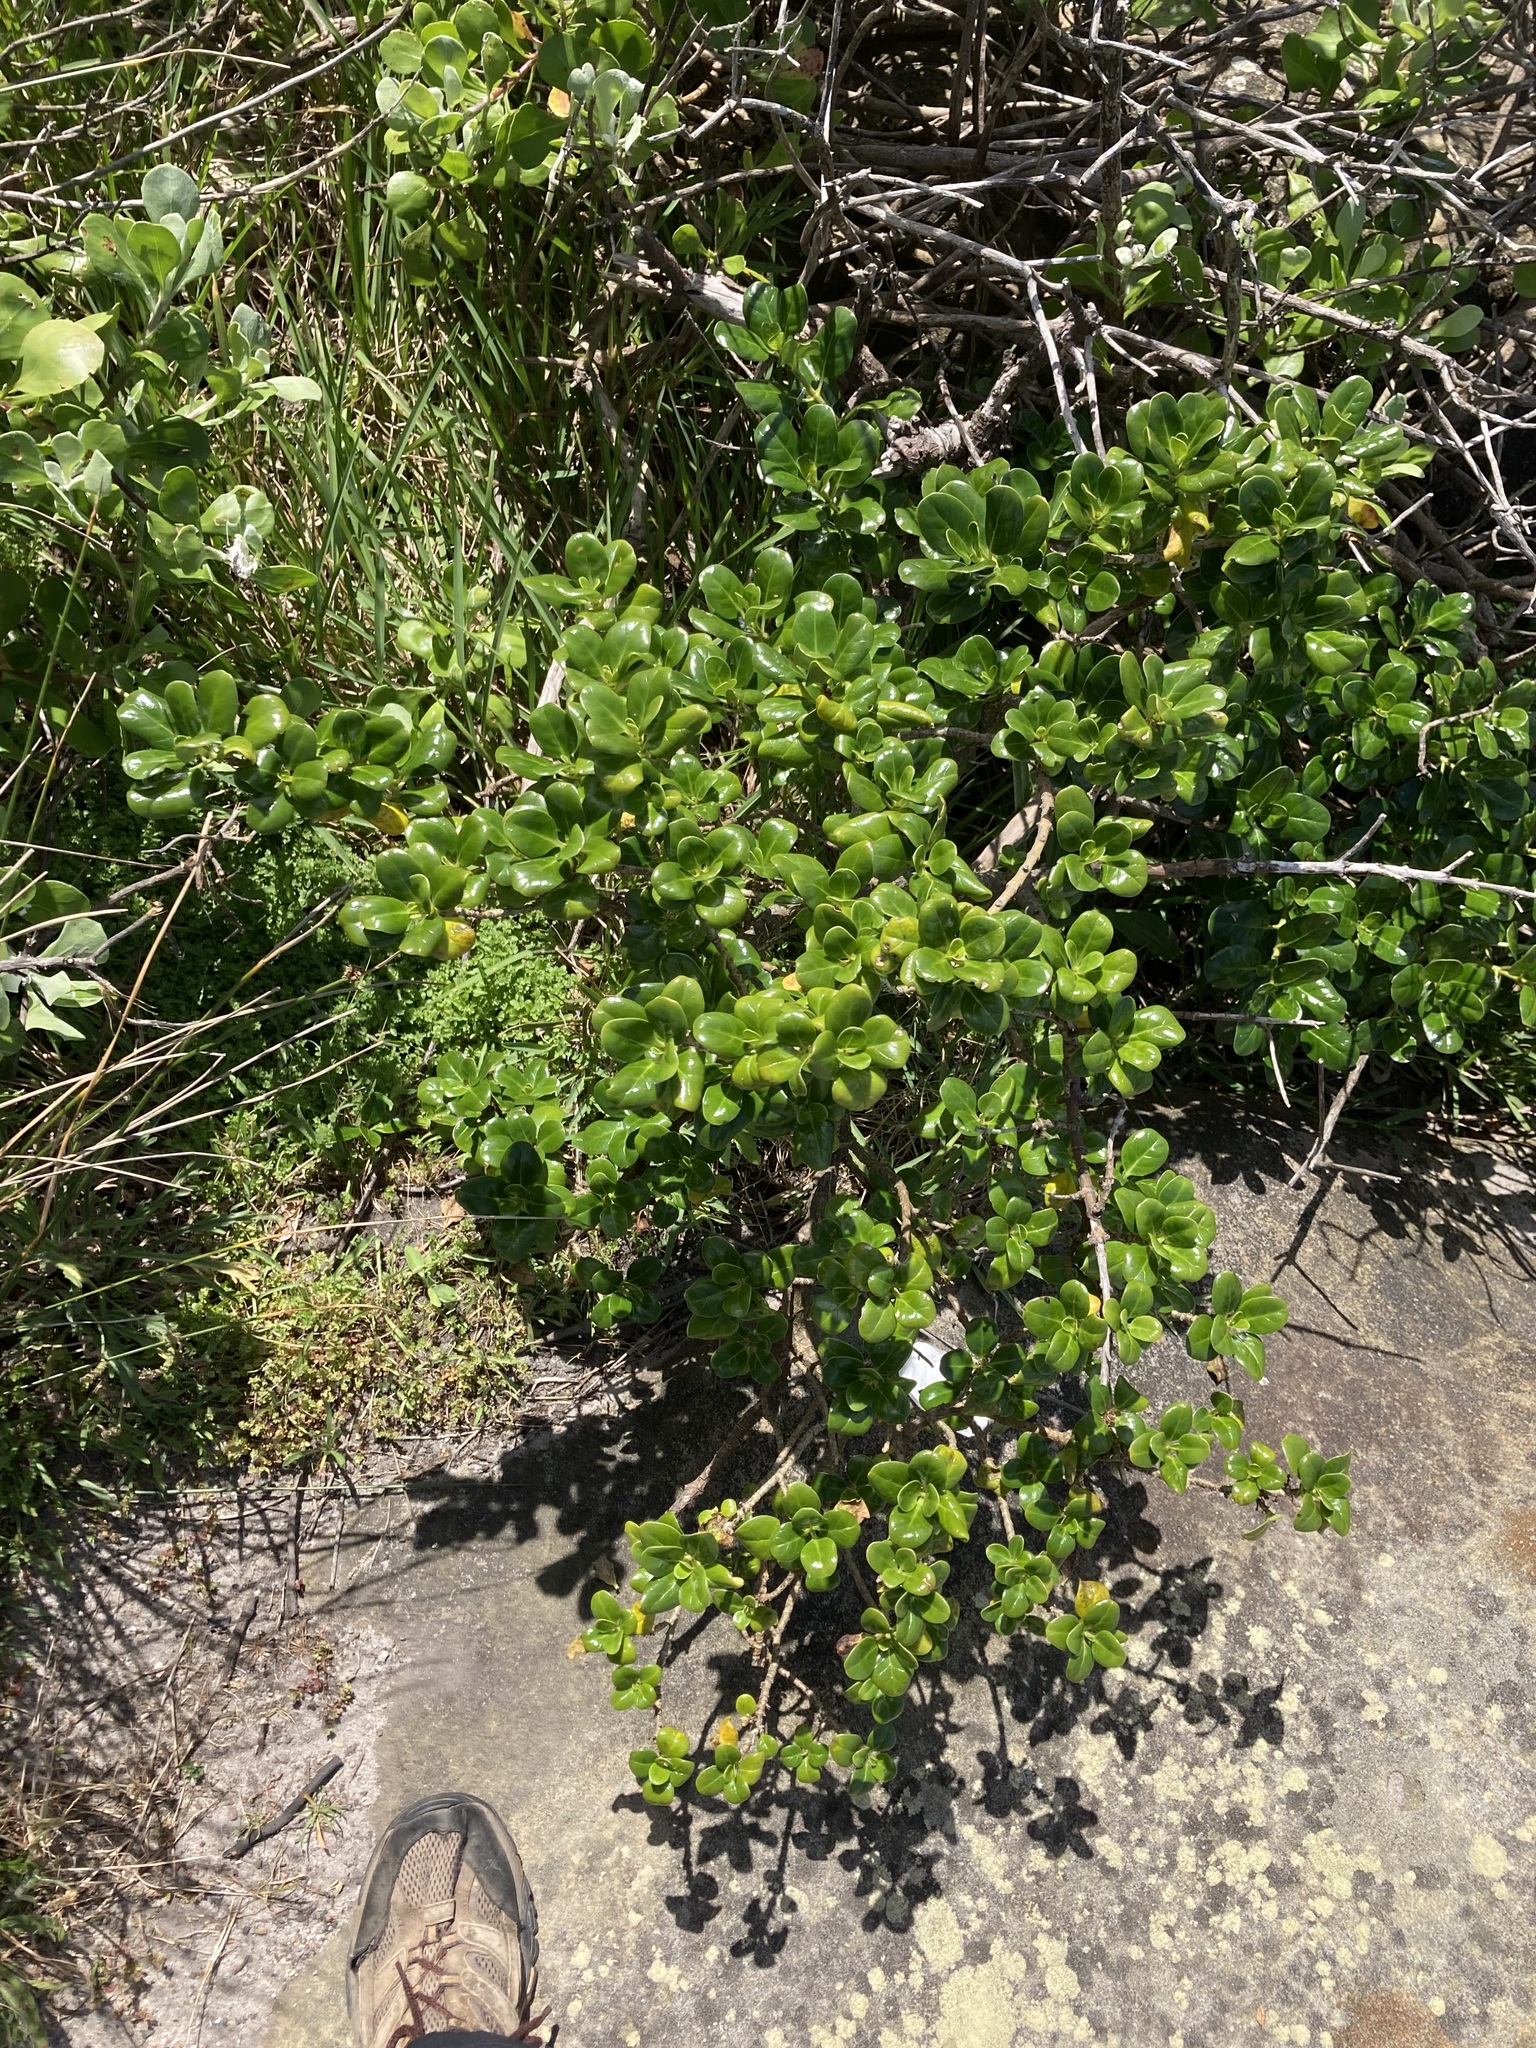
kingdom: Plantae
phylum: Tracheophyta
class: Magnoliopsida
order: Gentianales
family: Rubiaceae
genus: Coprosma
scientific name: Coprosma repens
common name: Tree bedstraw
